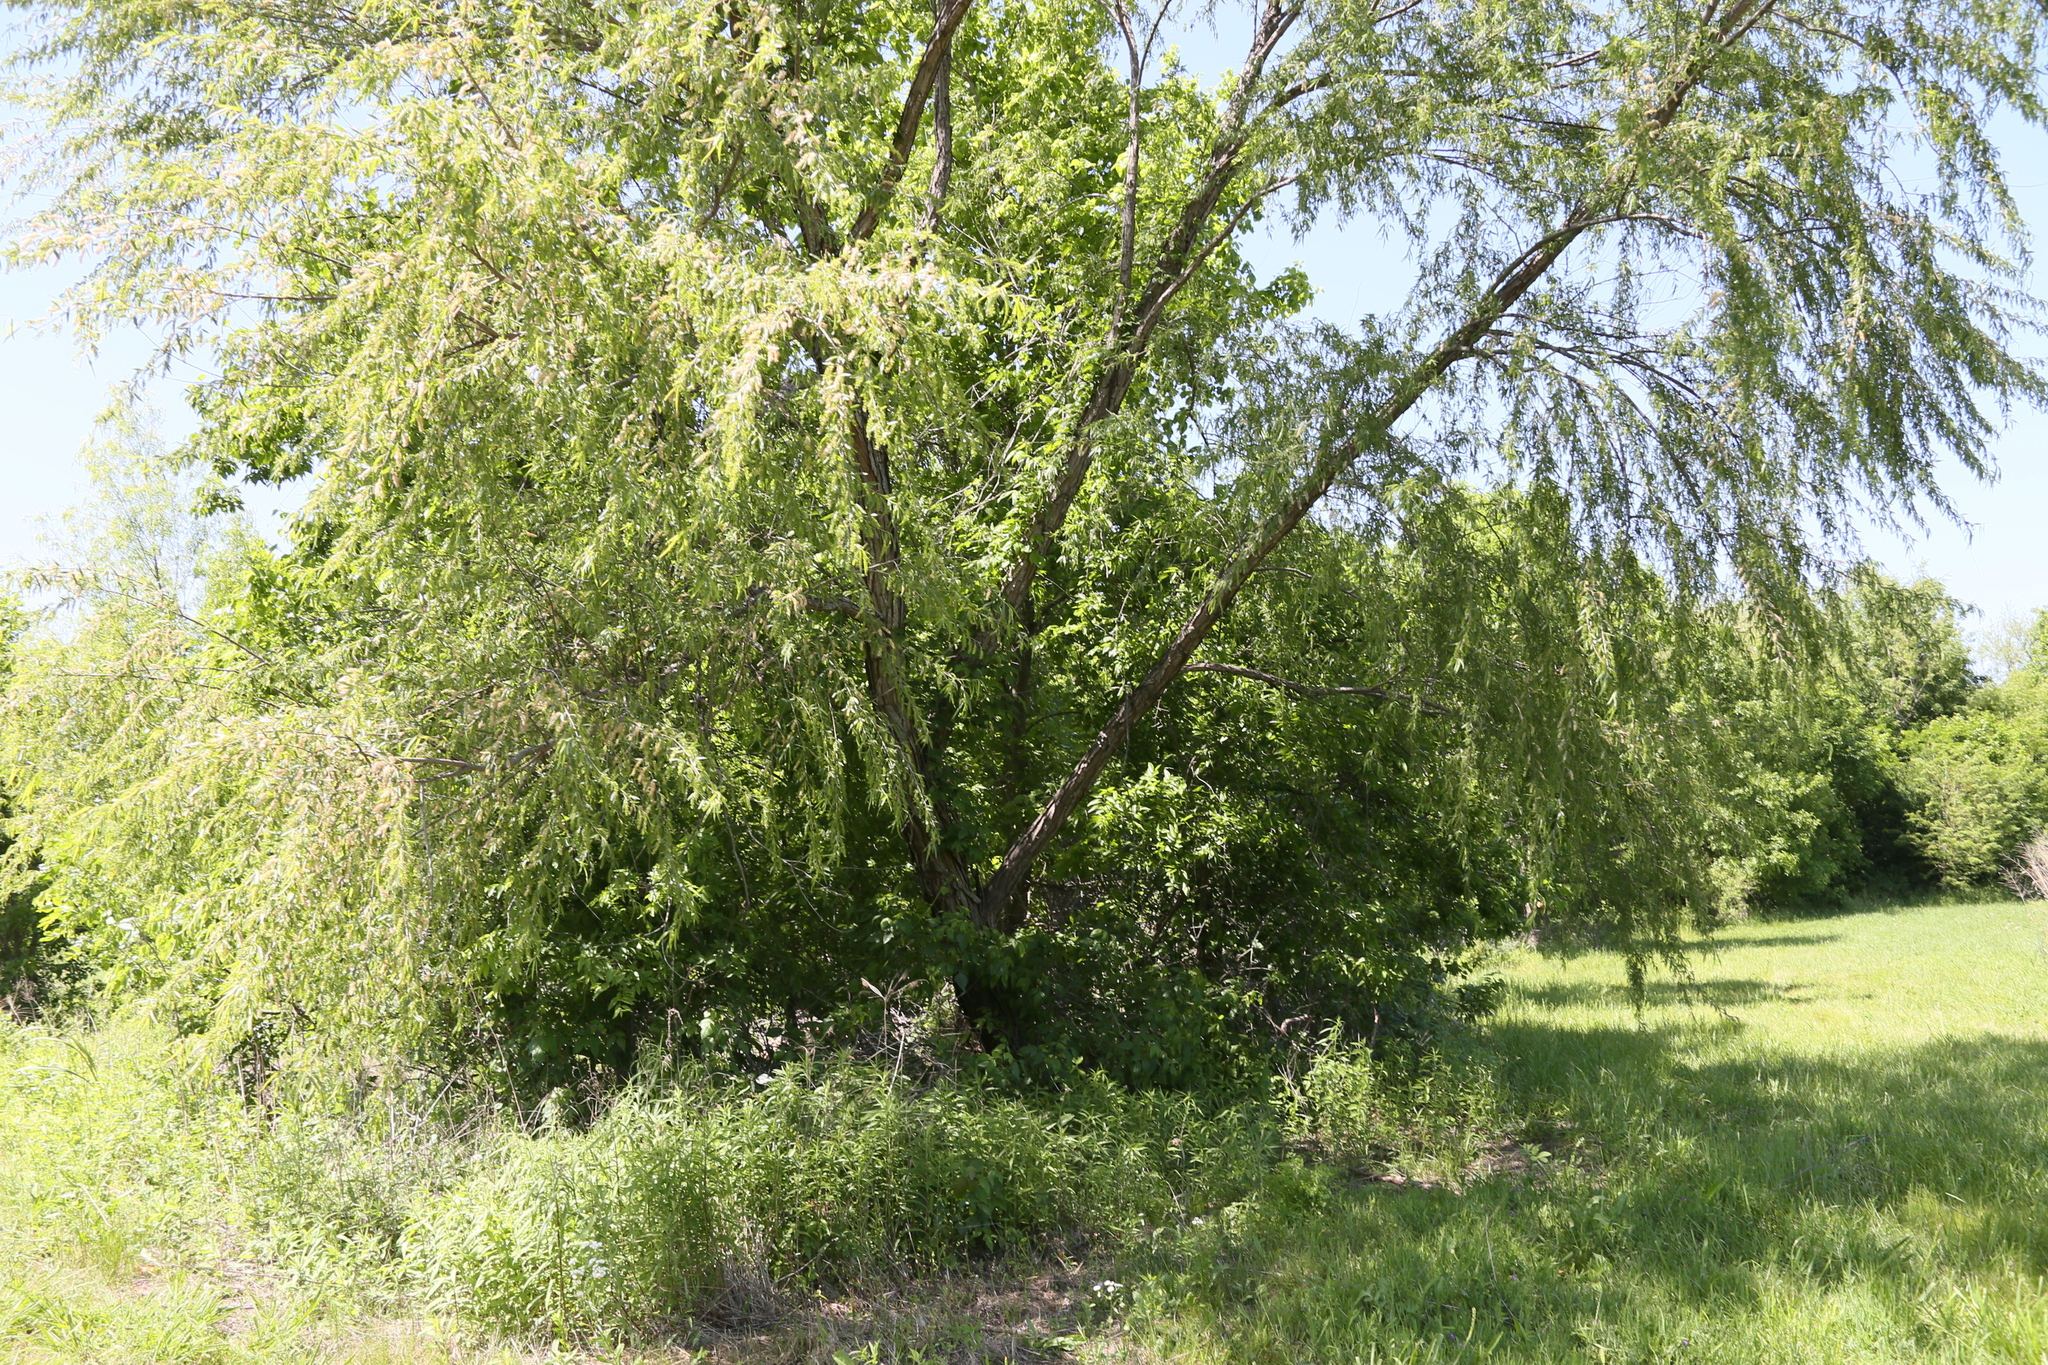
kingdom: Plantae
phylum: Tracheophyta
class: Magnoliopsida
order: Malpighiales
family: Salicaceae
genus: Salix
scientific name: Salix nigra
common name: Black willow
